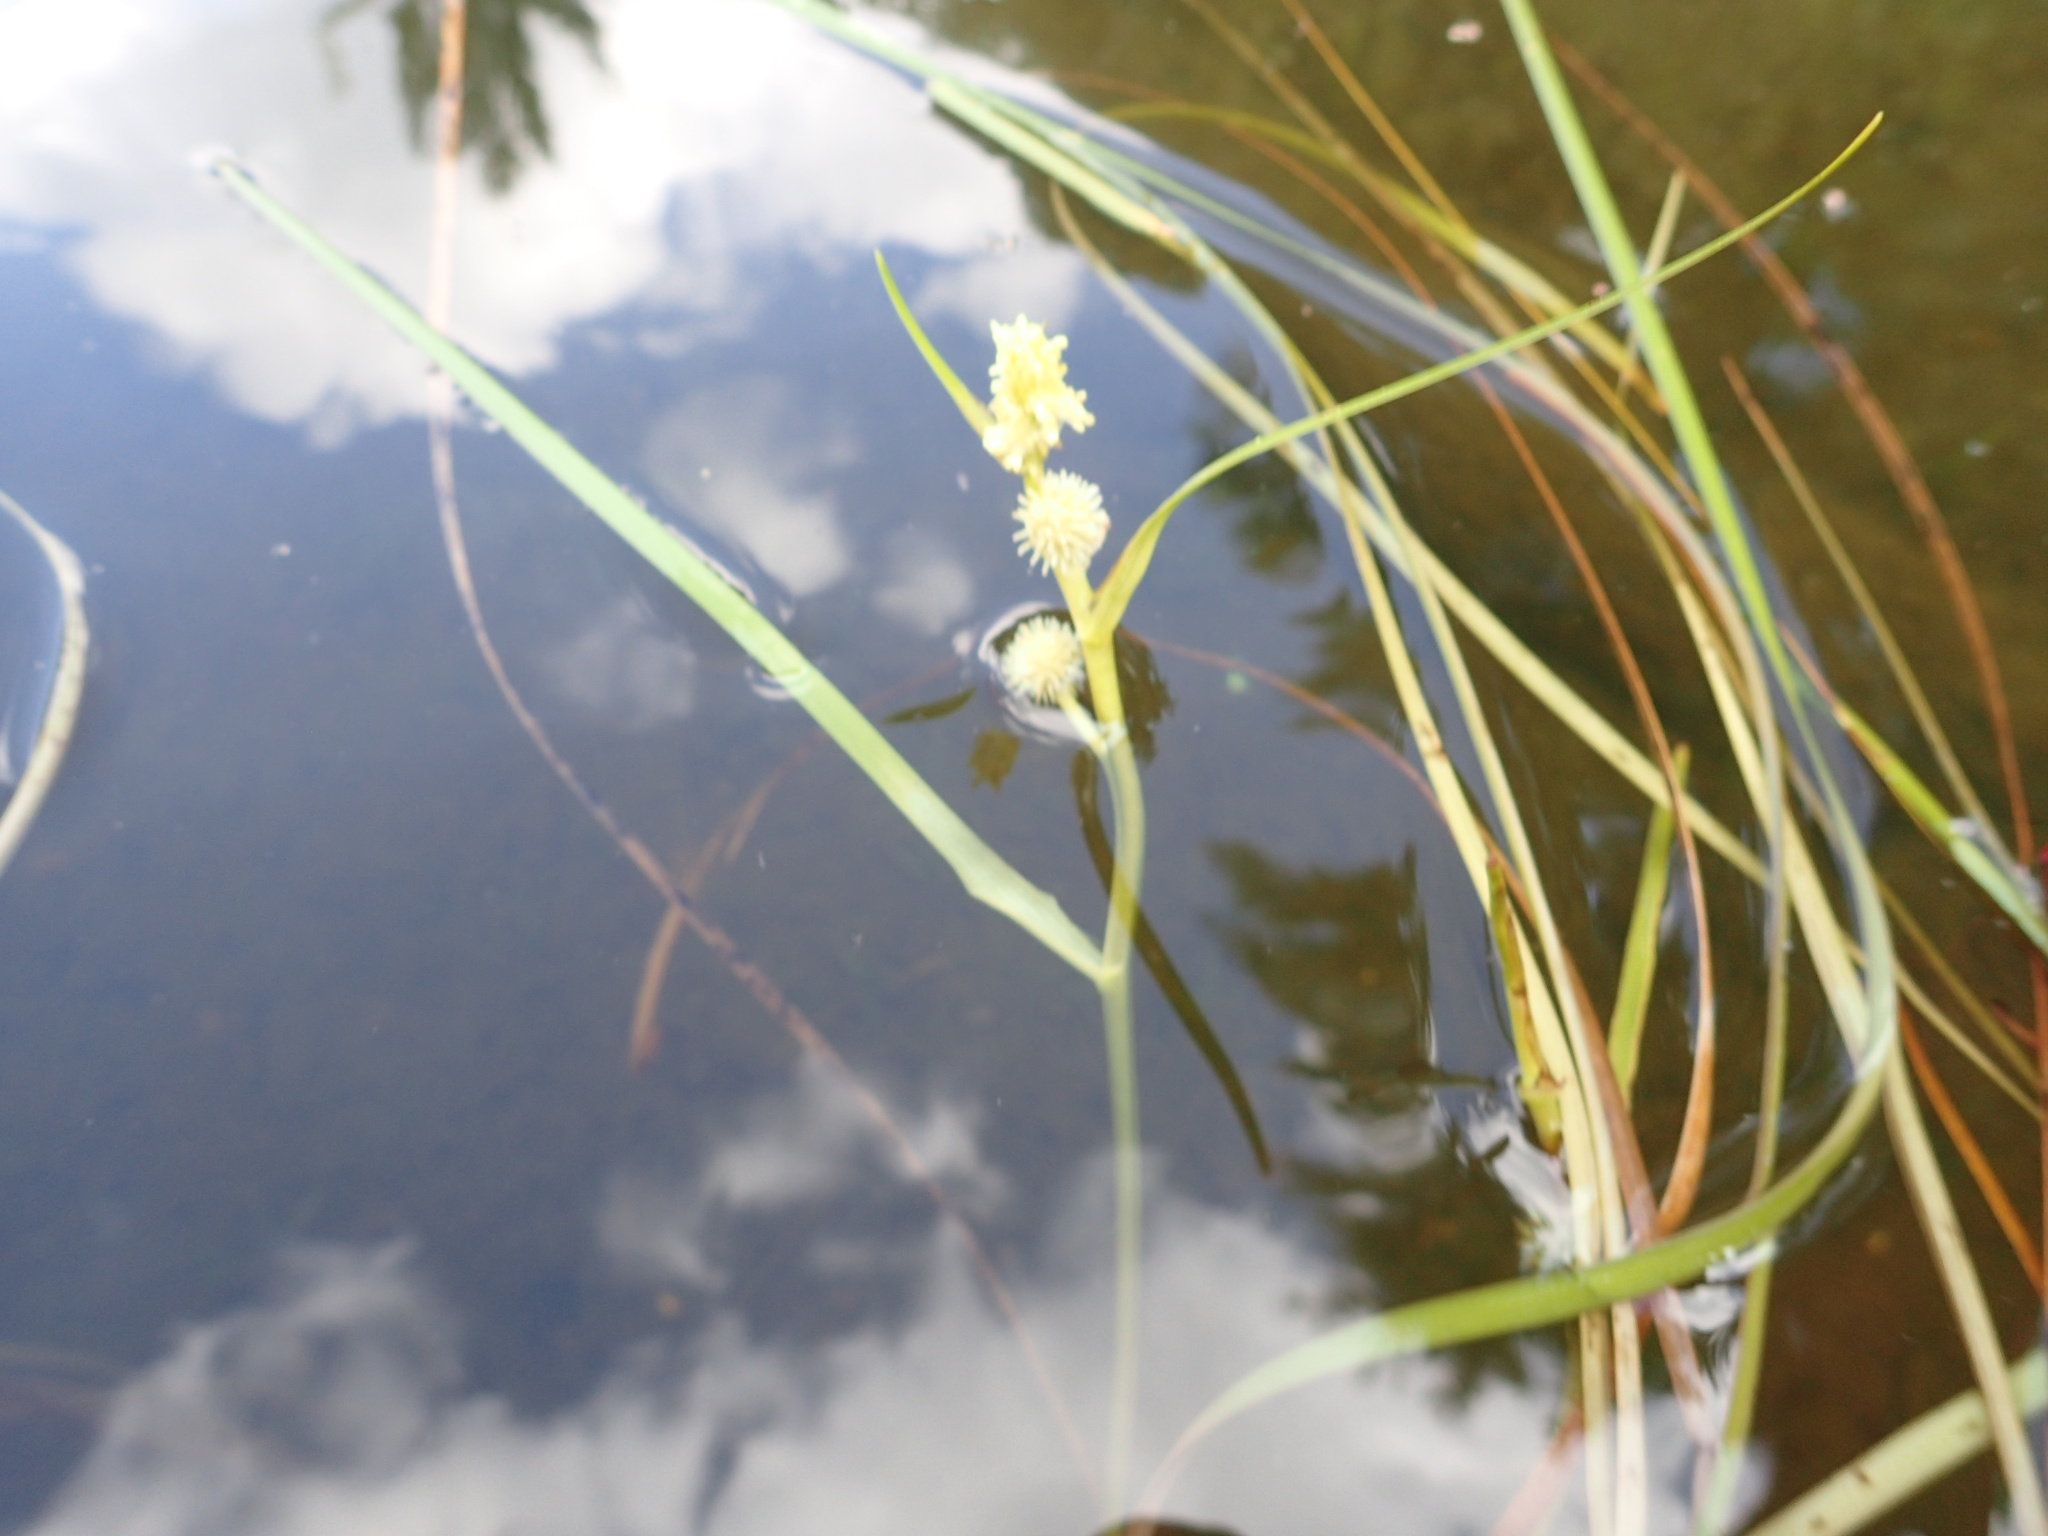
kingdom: Plantae
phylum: Tracheophyta
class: Liliopsida
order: Poales
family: Typhaceae
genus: Sparganium
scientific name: Sparganium angustifolium
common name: Floating bur-reed
